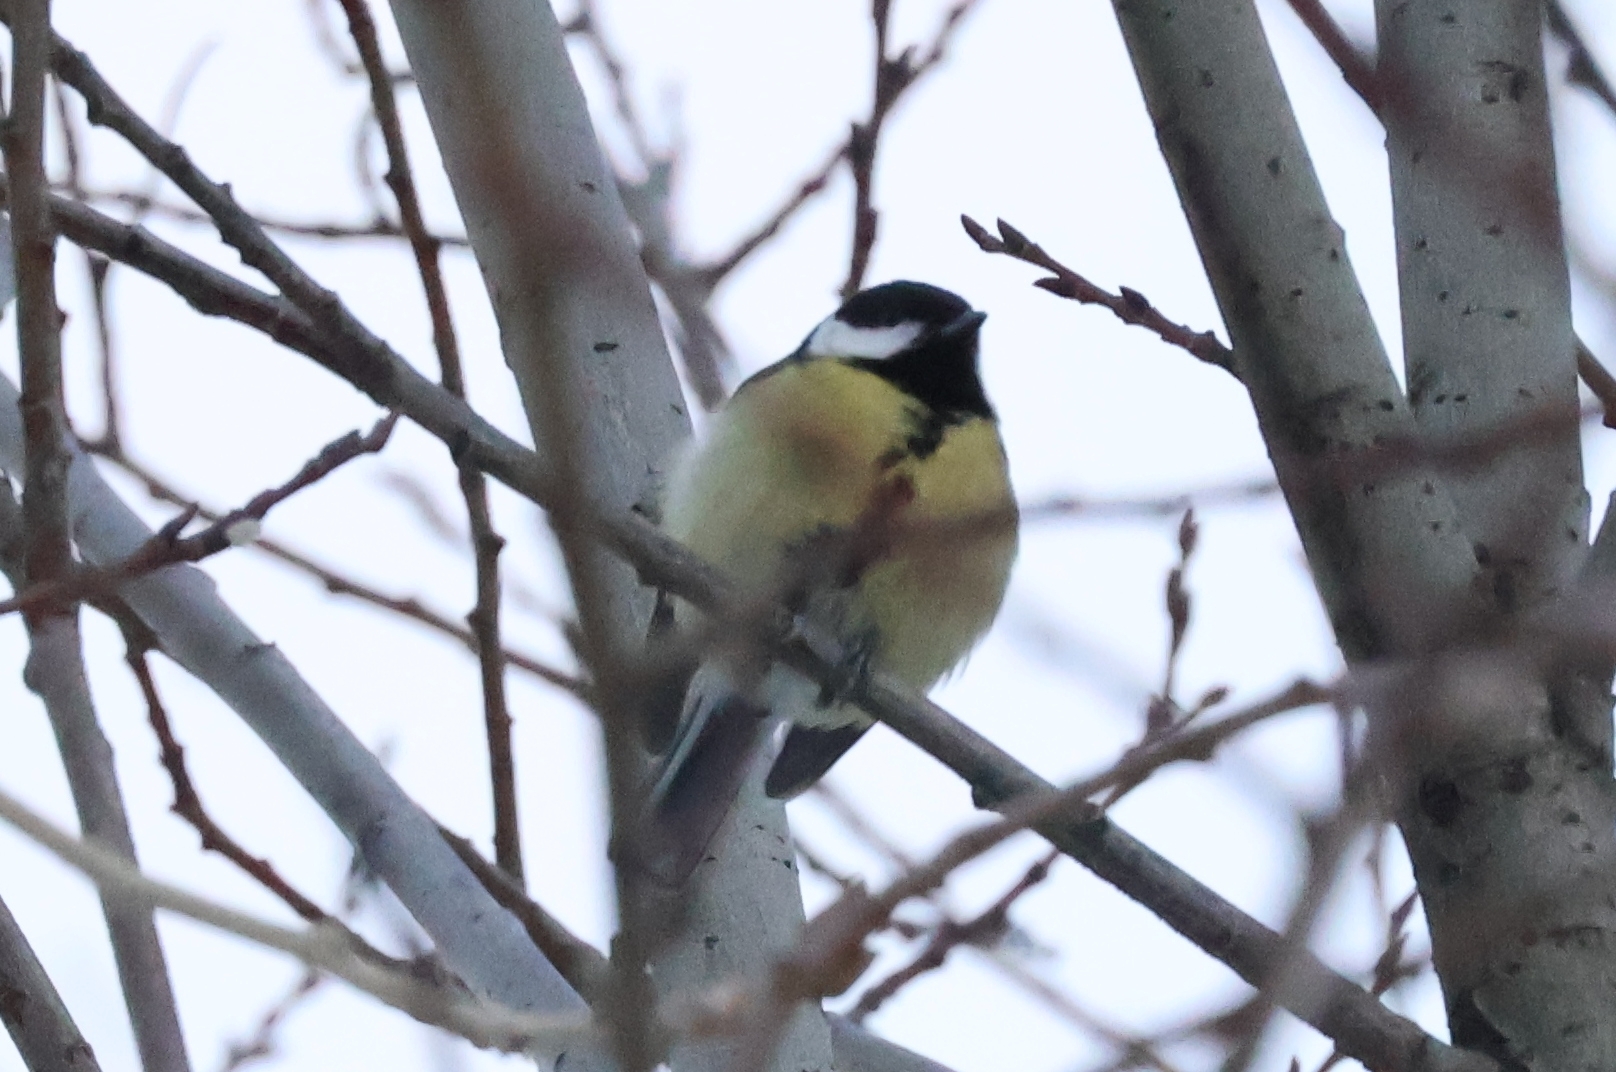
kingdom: Animalia
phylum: Chordata
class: Aves
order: Passeriformes
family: Paridae
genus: Parus
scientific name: Parus major
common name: Great tit
